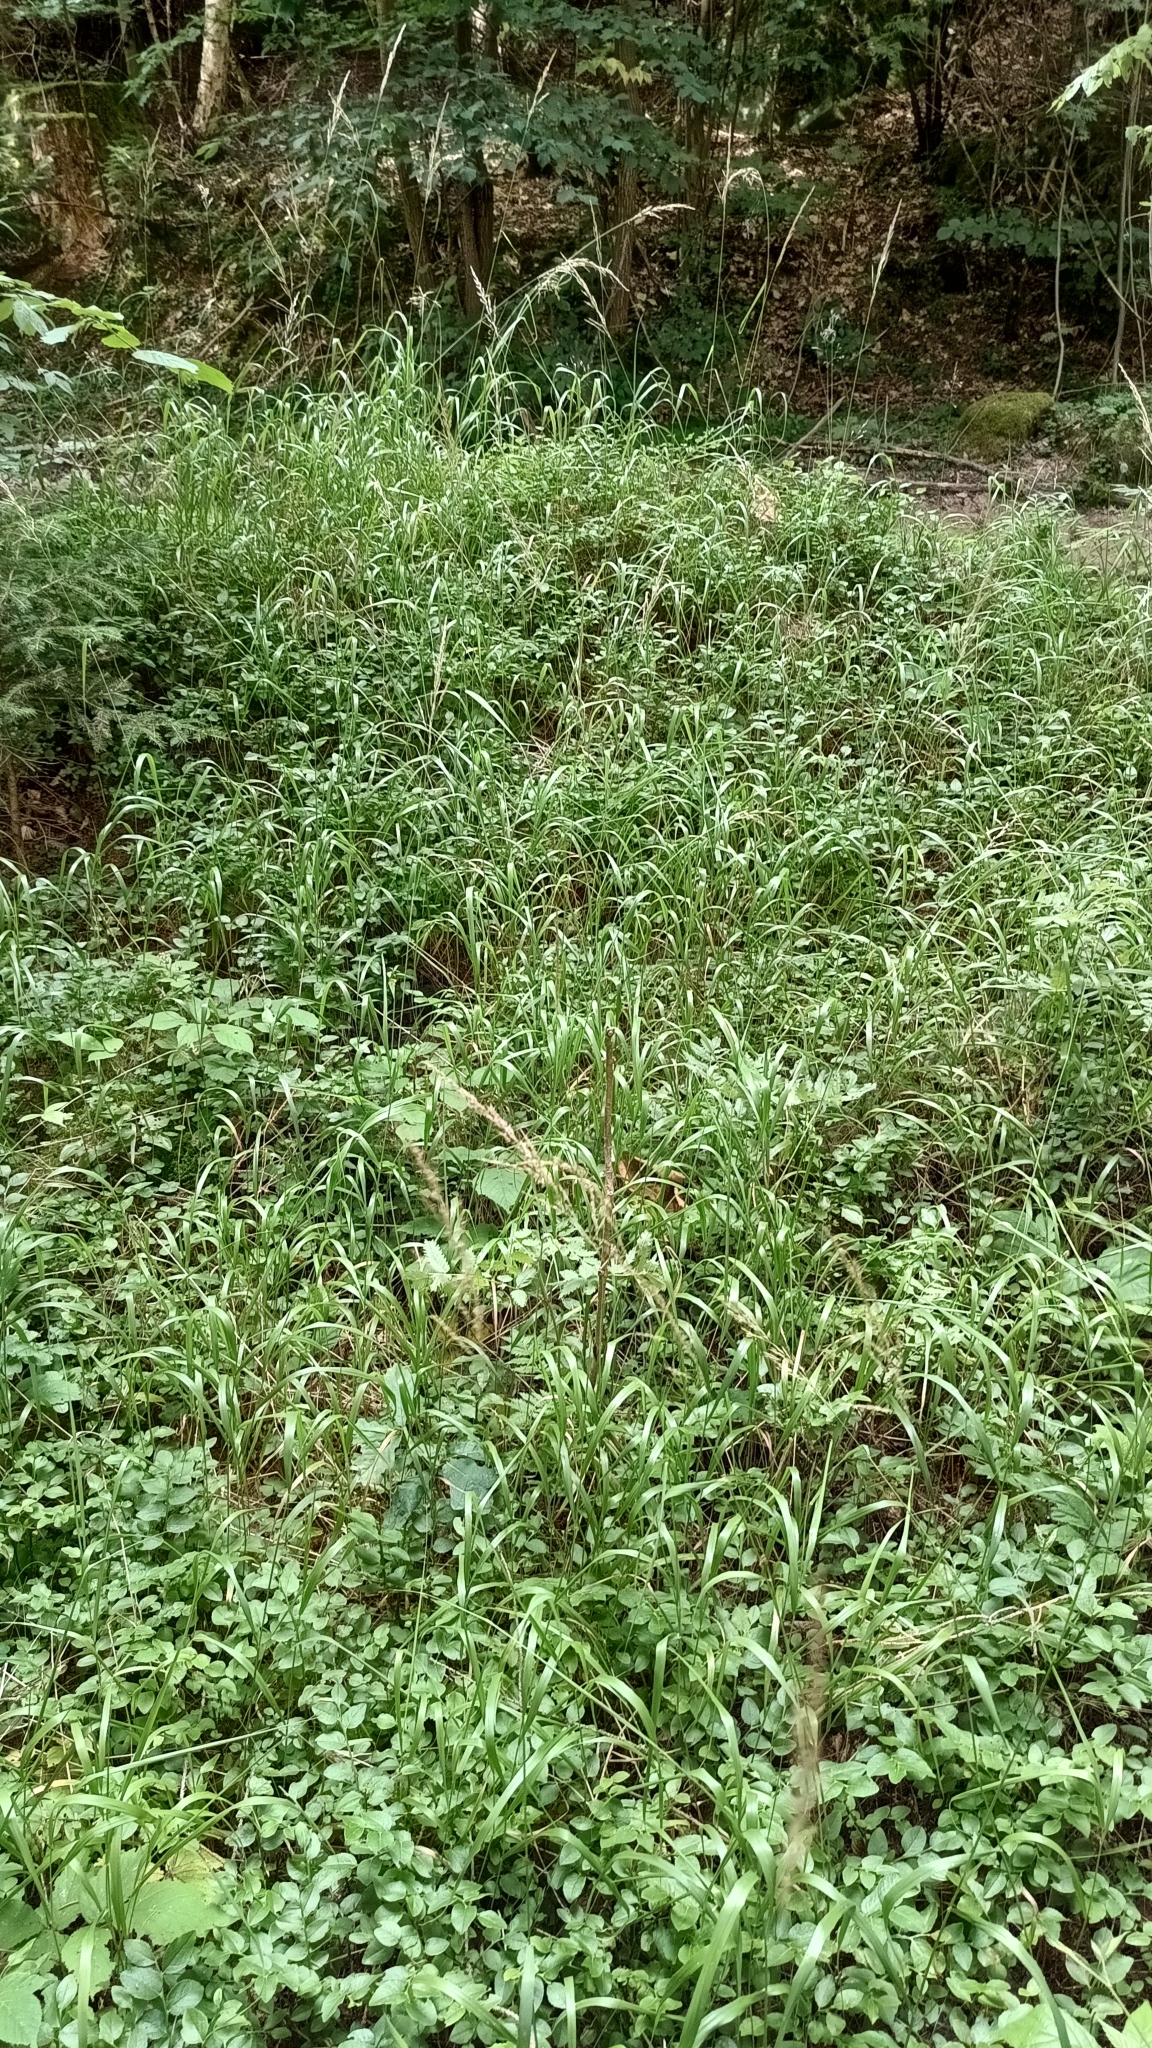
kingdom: Plantae
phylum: Tracheophyta
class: Liliopsida
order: Poales
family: Poaceae
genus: Calamagrostis
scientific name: Calamagrostis villosa
